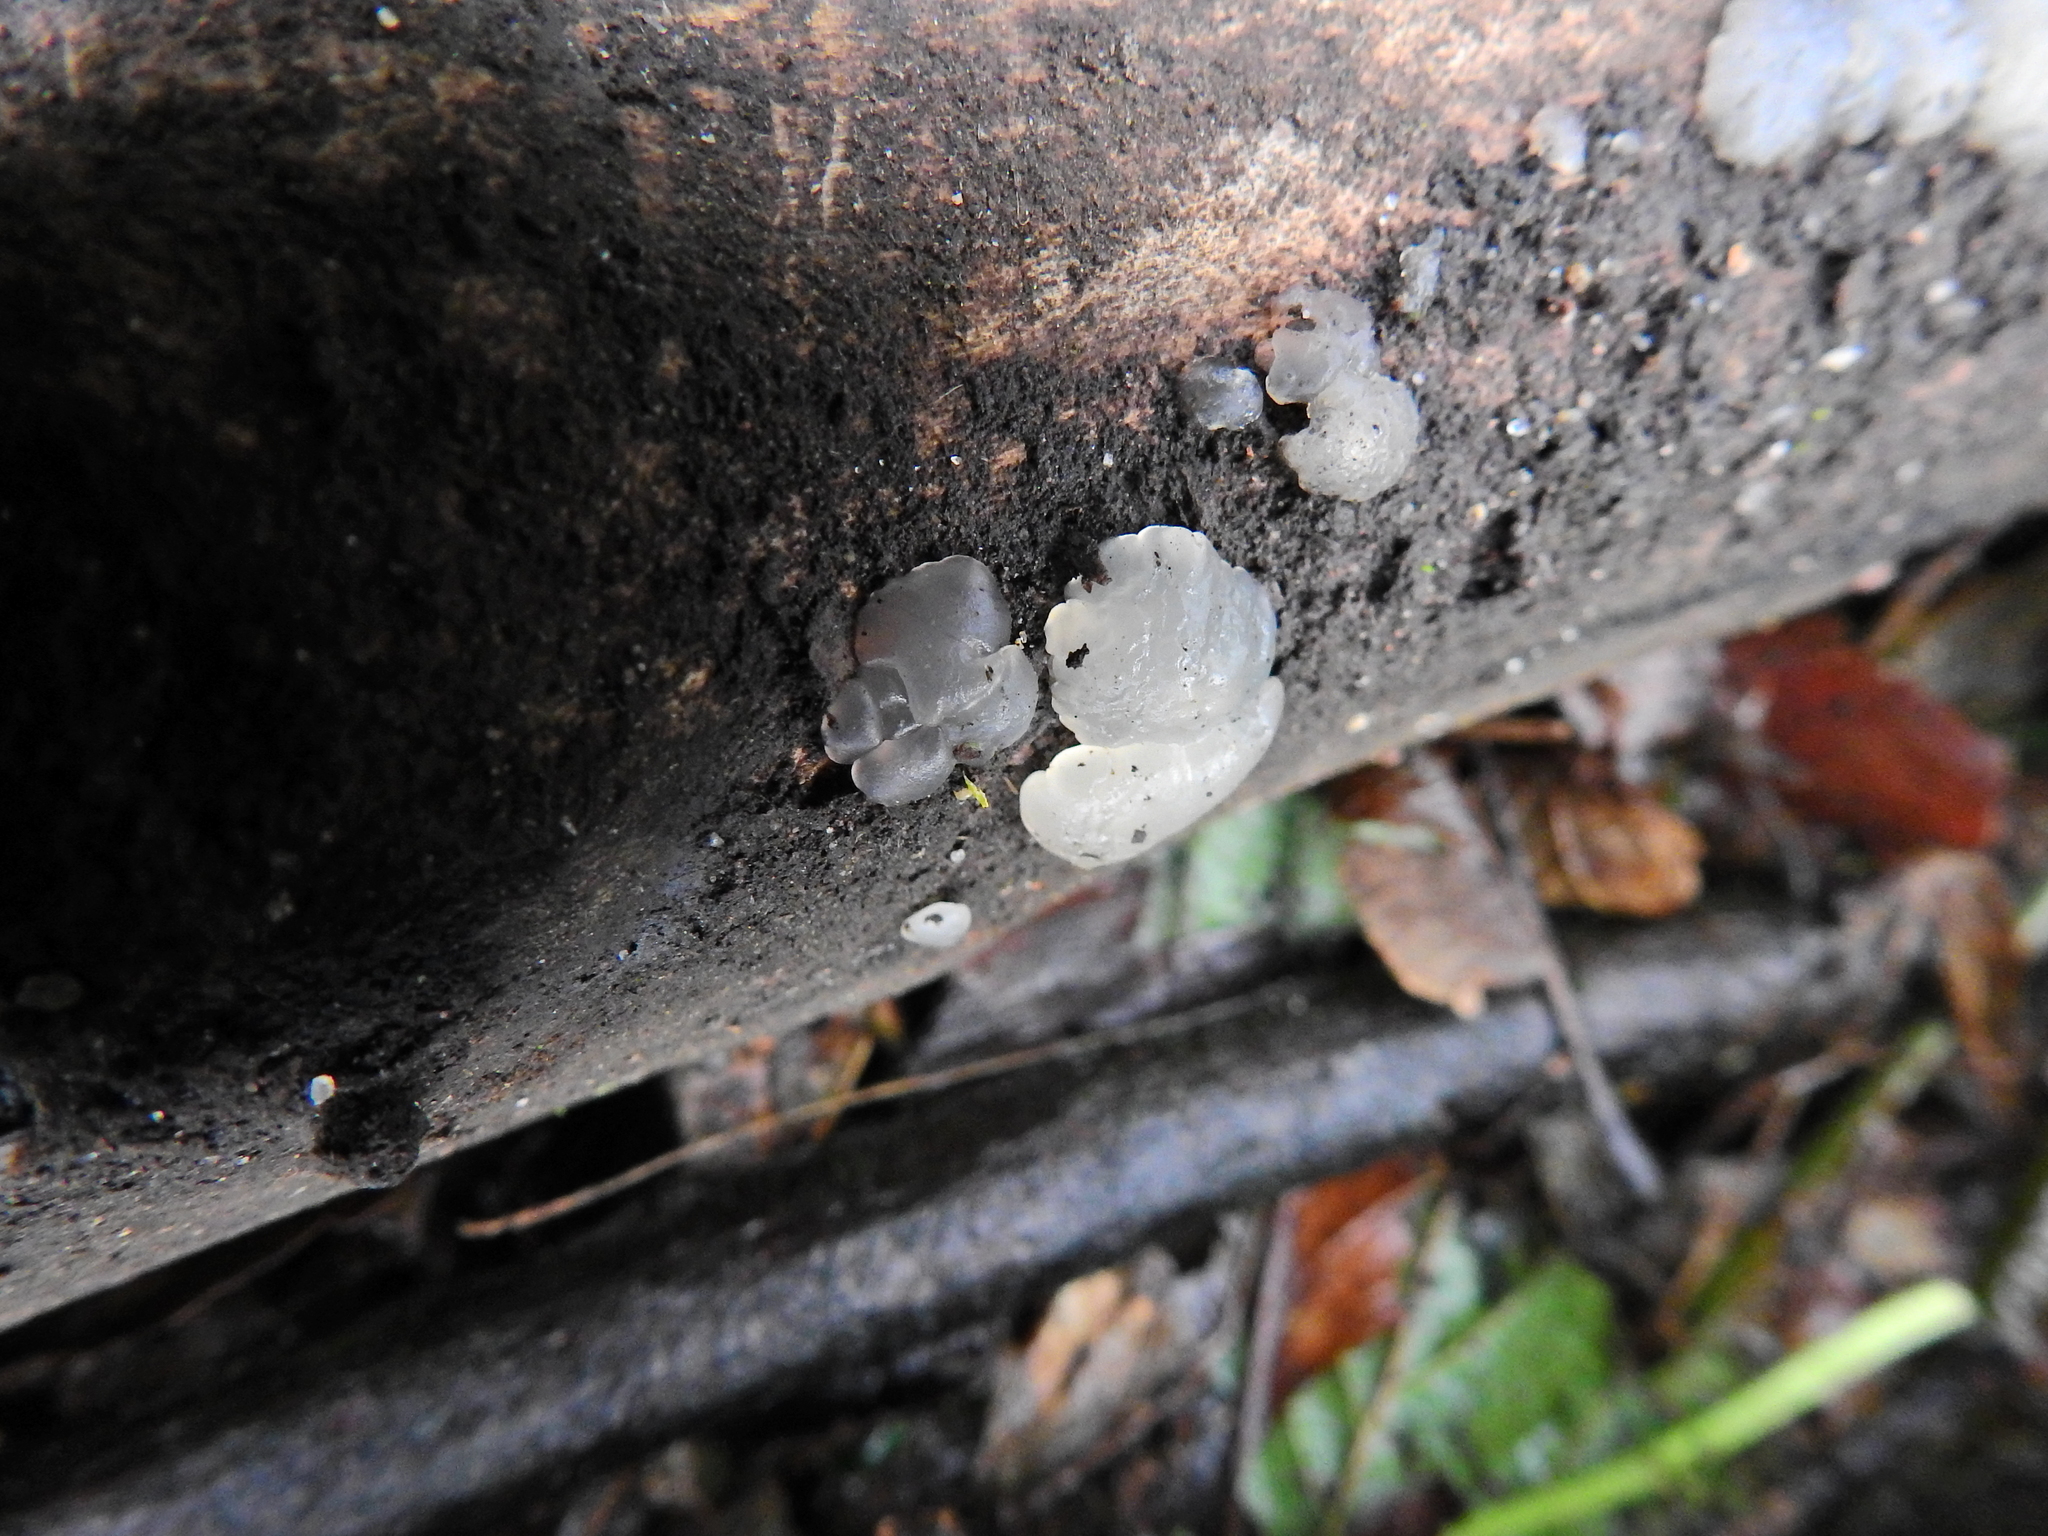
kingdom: Fungi
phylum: Basidiomycota
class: Agaricomycetes
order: Auriculariales
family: Hyaloriaceae
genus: Myxarium
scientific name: Myxarium nucleatum
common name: Crystal brain fungus
